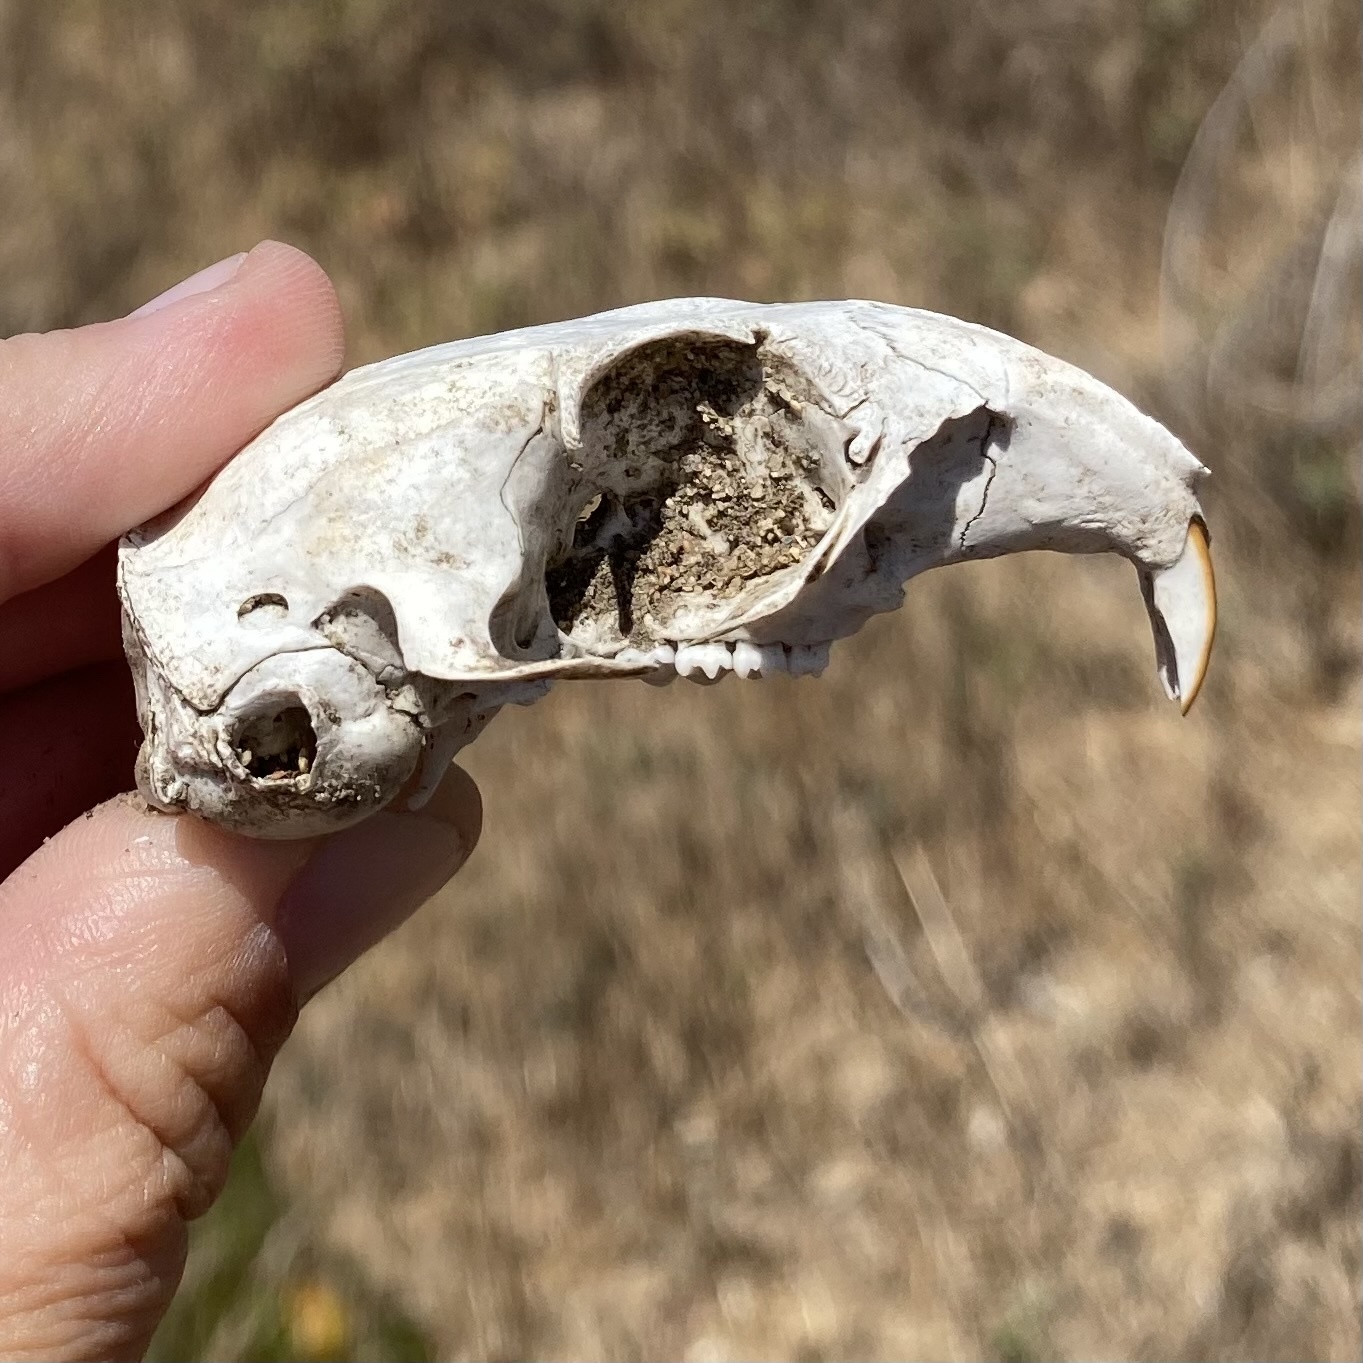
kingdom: Animalia
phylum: Chordata
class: Mammalia
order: Rodentia
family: Sciuridae
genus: Otospermophilus
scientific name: Otospermophilus beecheyi
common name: California ground squirrel
